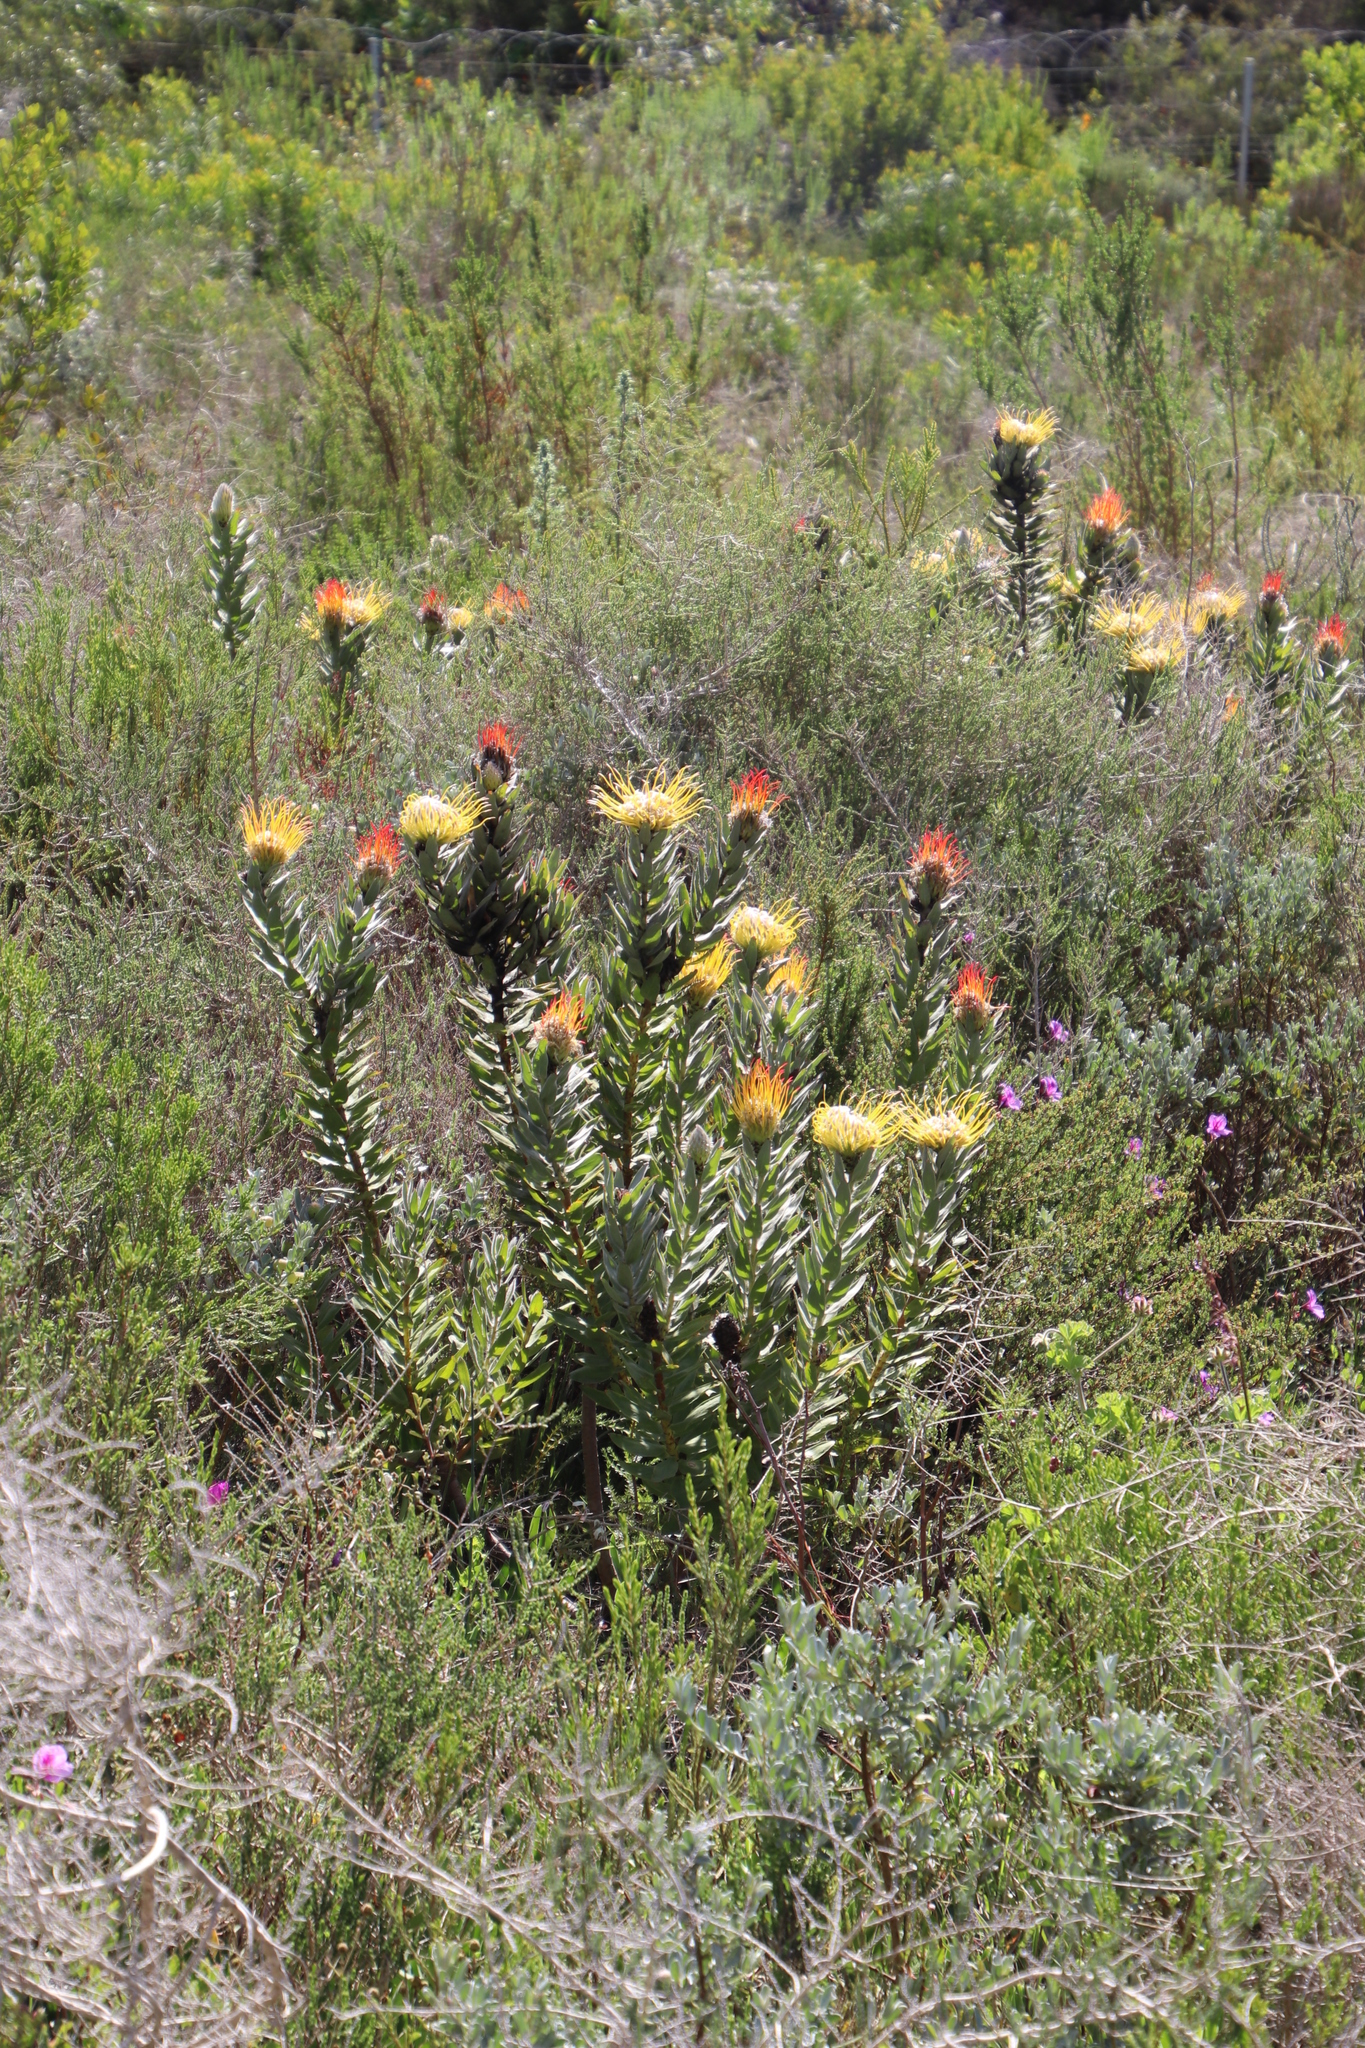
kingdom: Plantae
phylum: Tracheophyta
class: Magnoliopsida
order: Proteales
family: Proteaceae
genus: Leucospermum
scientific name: Leucospermum grandiflorum
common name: Grey-leaf fountain pincushion
